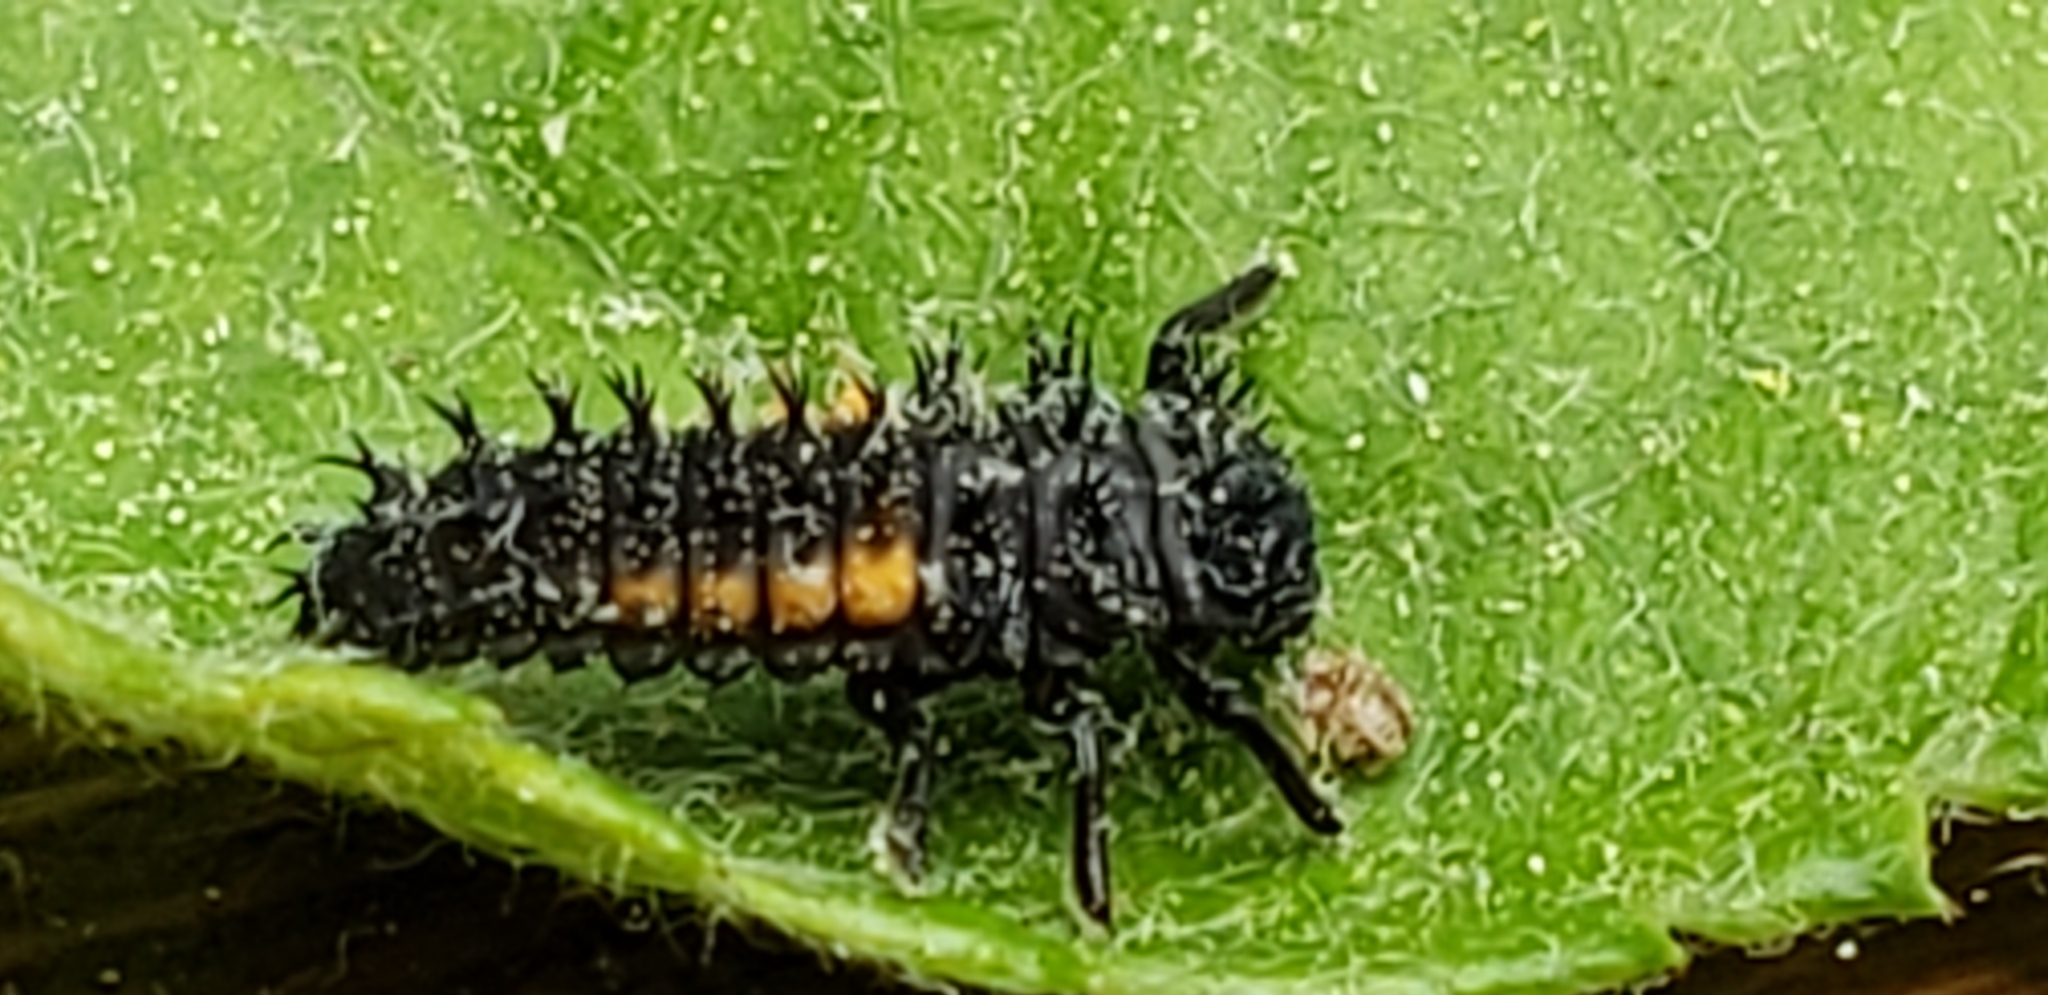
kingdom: Animalia
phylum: Arthropoda
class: Insecta
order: Coleoptera
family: Coccinellidae
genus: Harmonia
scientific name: Harmonia axyridis
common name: Harlequin ladybird
